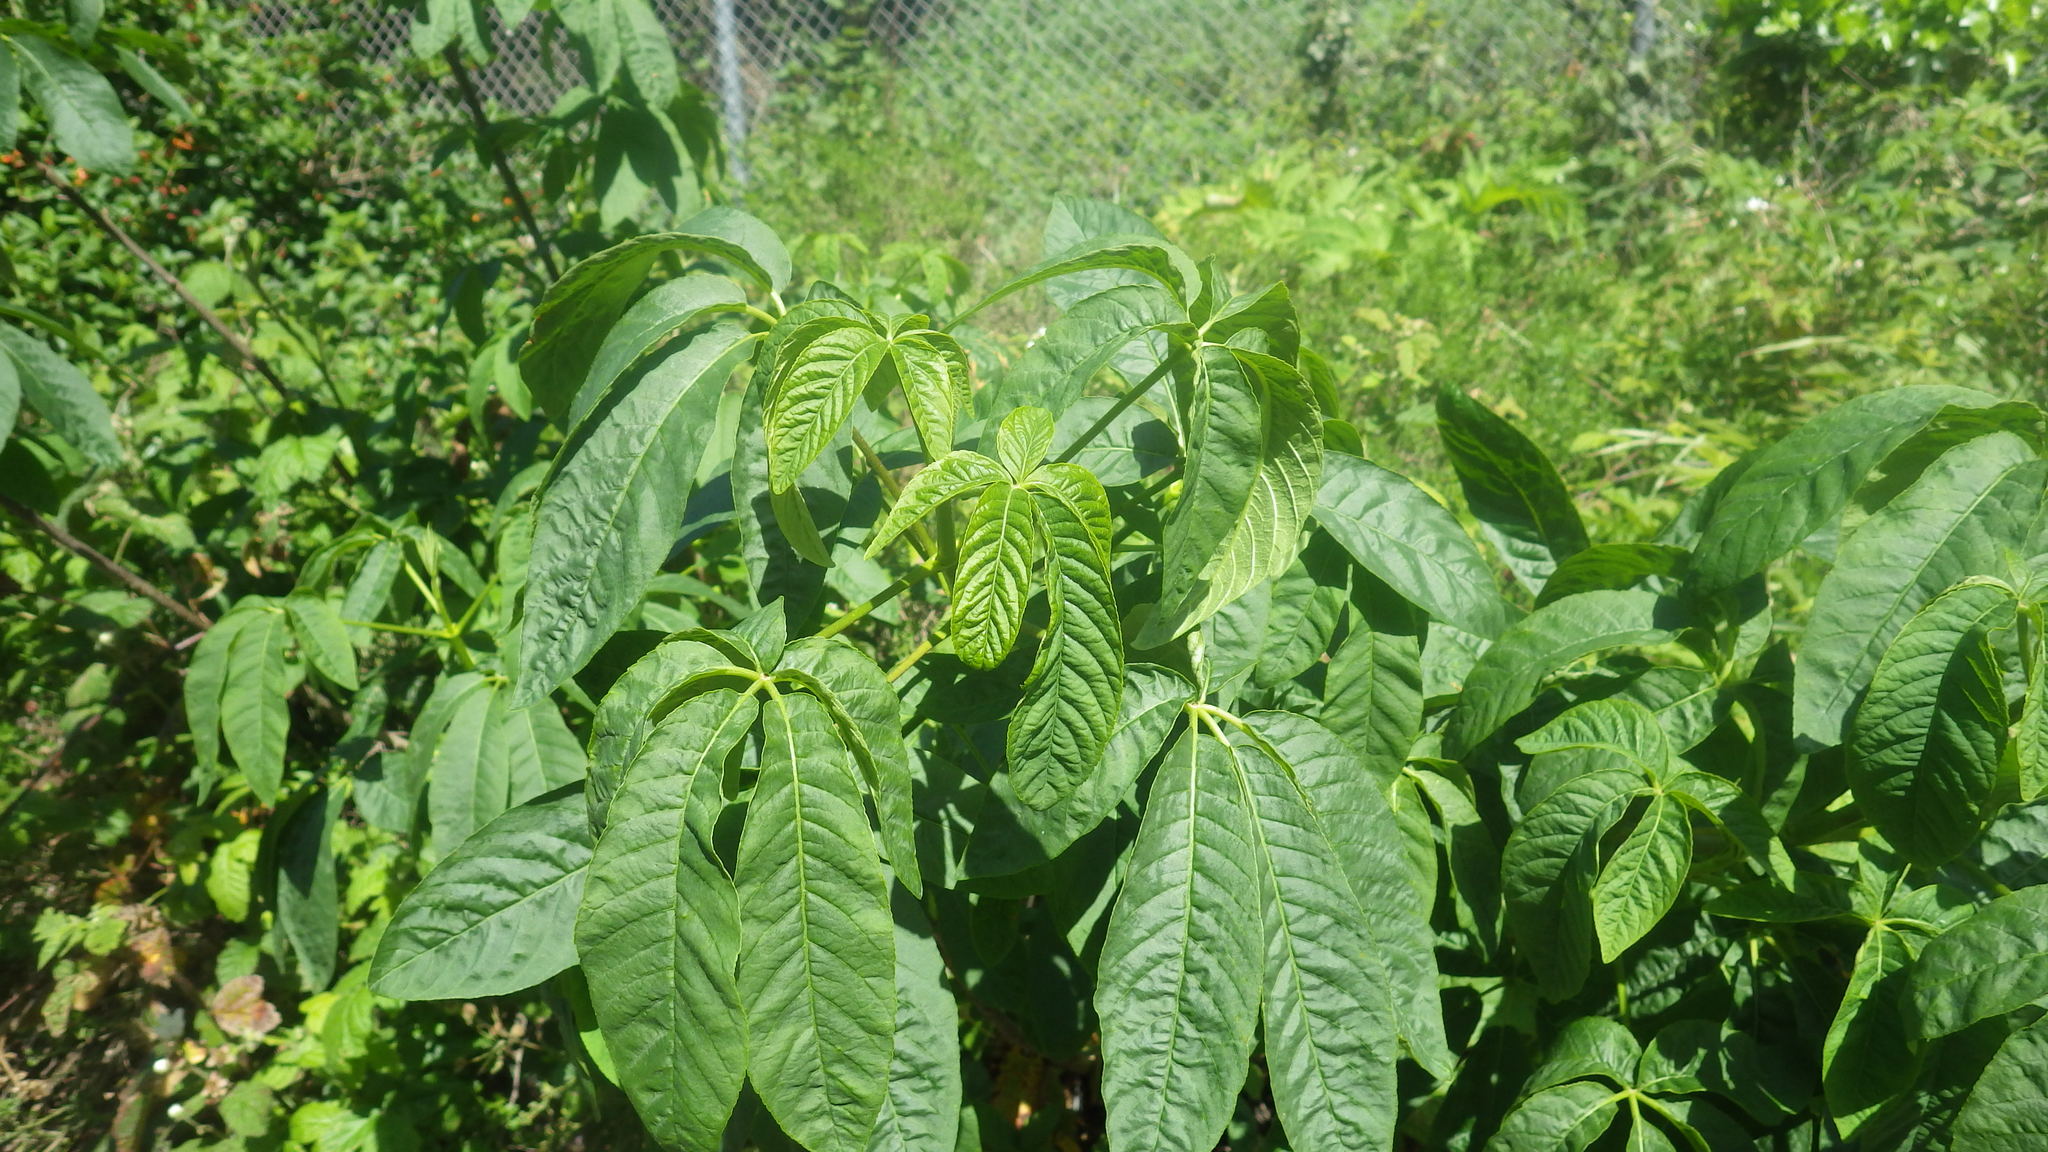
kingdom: Plantae
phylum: Tracheophyta
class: Magnoliopsida
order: Sapindales
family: Sapindaceae
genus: Aesculus
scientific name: Aesculus californica
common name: California buckeye
